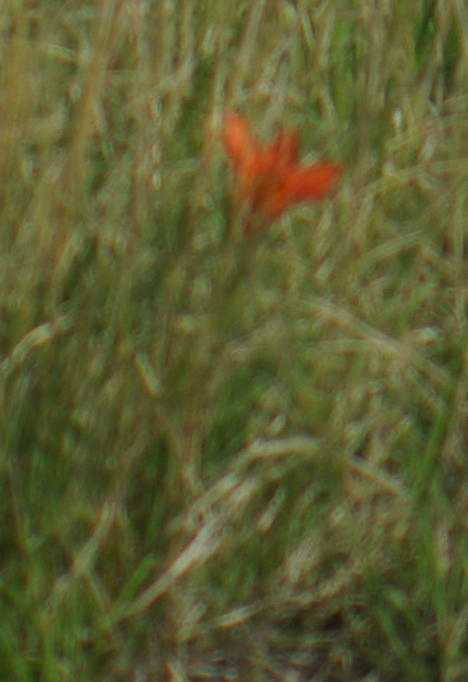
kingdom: Plantae
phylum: Tracheophyta
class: Liliopsida
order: Liliales
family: Liliaceae
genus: Lilium
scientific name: Lilium philadelphicum
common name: Red lily
